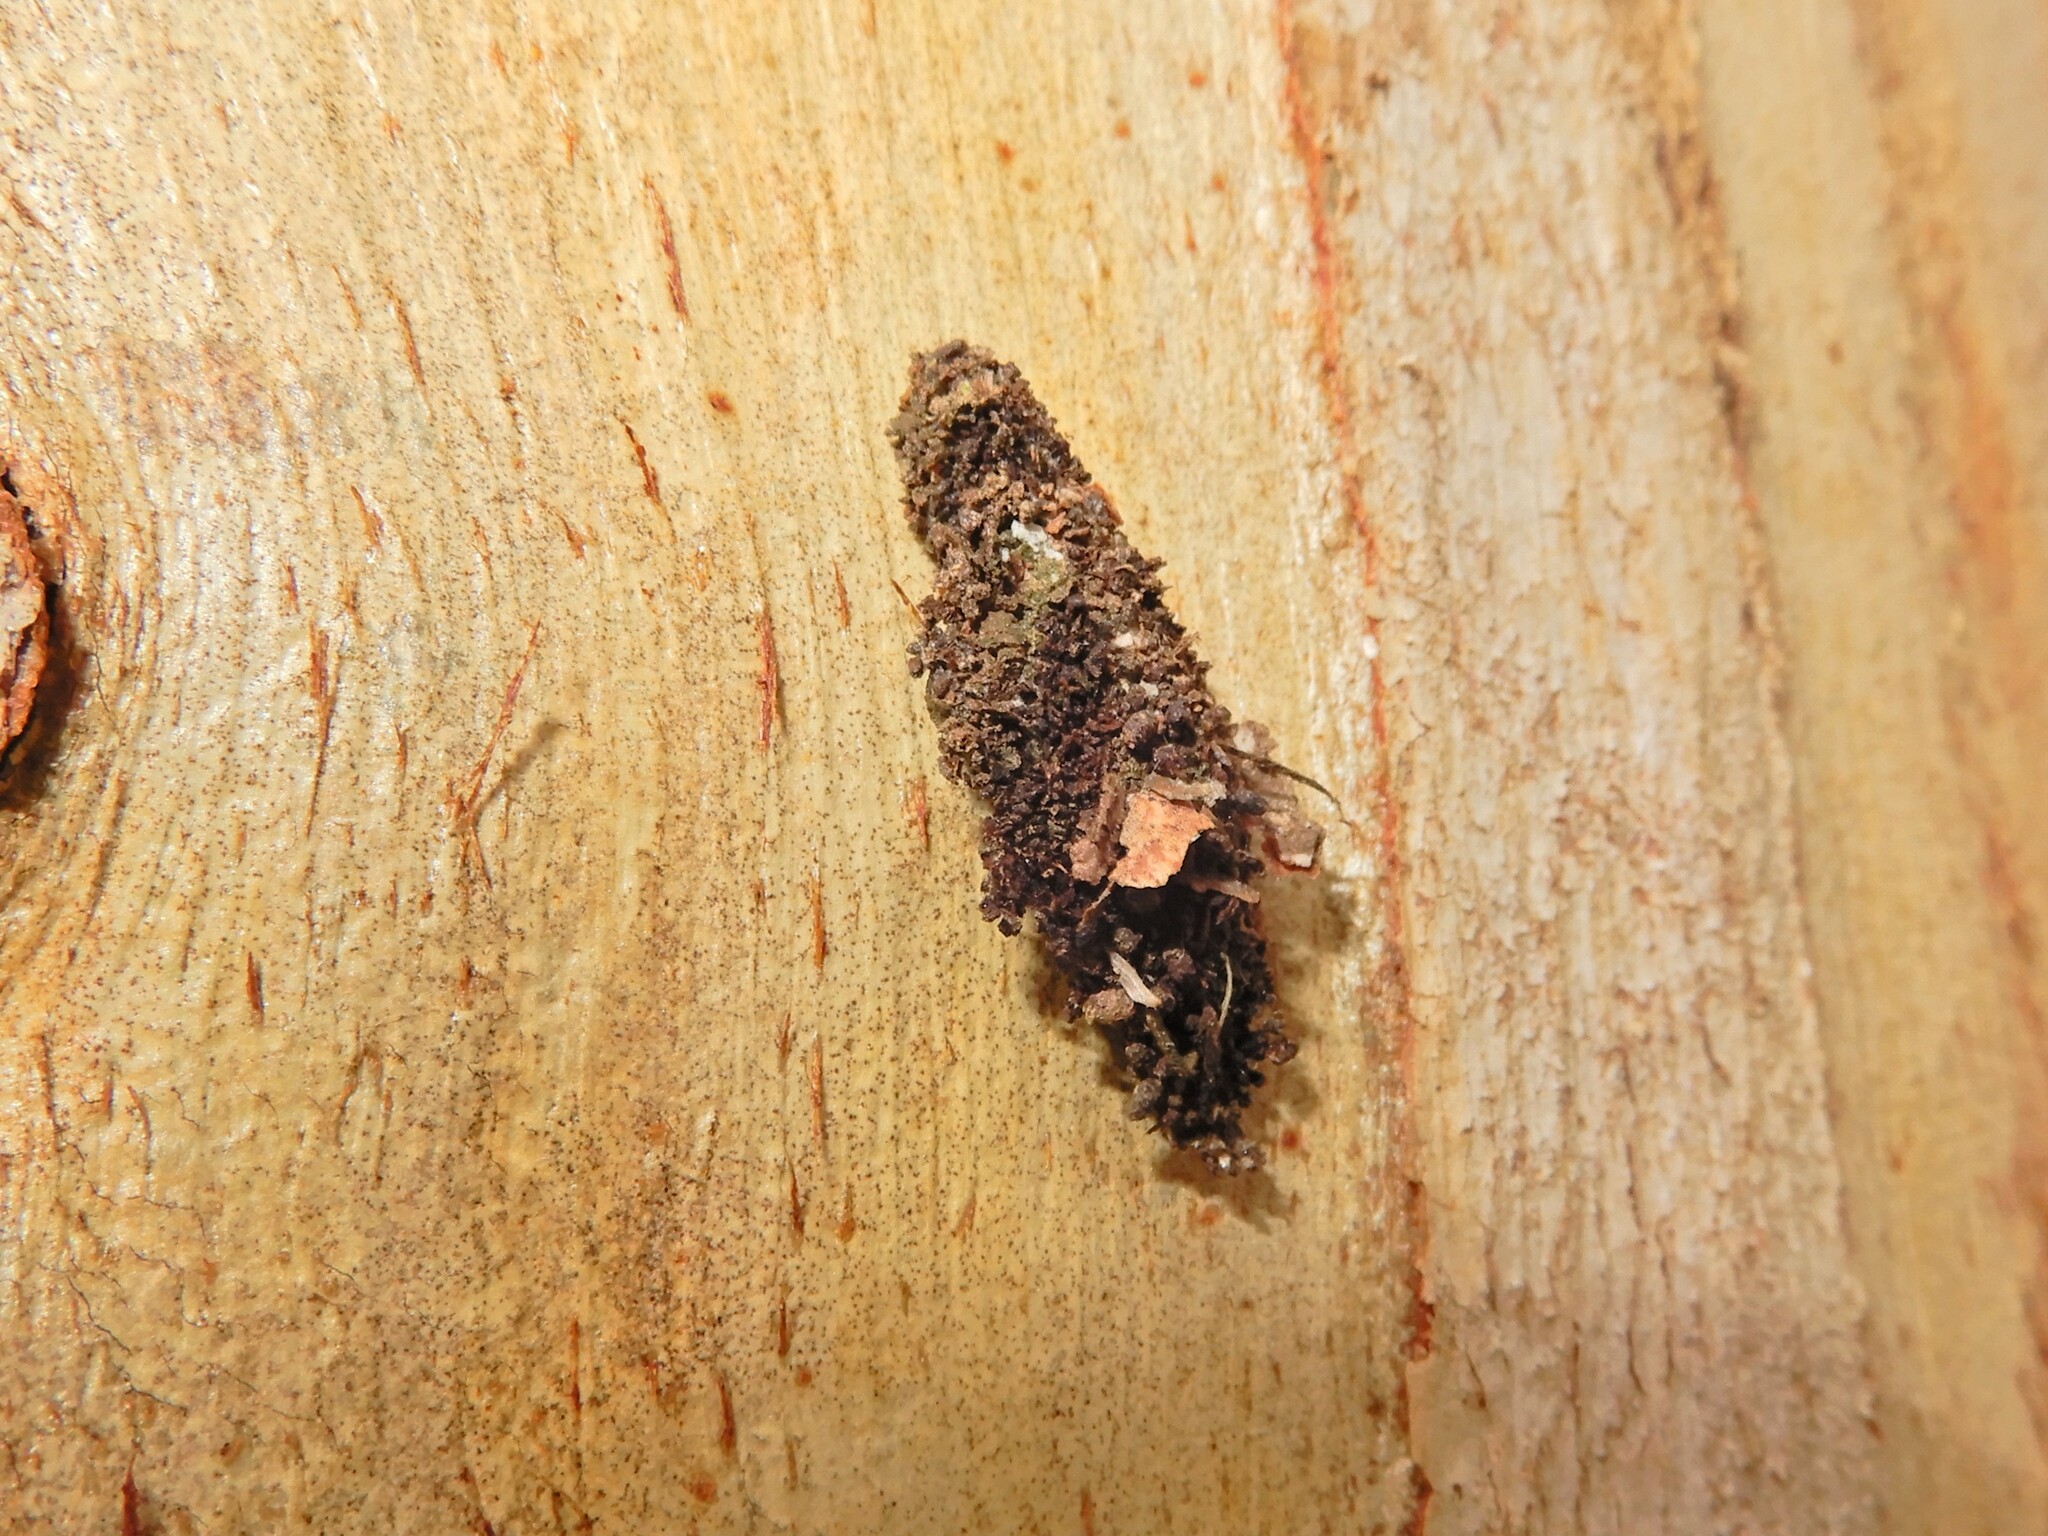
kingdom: Animalia
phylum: Arthropoda
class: Insecta
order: Lepidoptera
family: Psychidae
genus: Cebysa
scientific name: Cebysa leucotelus
